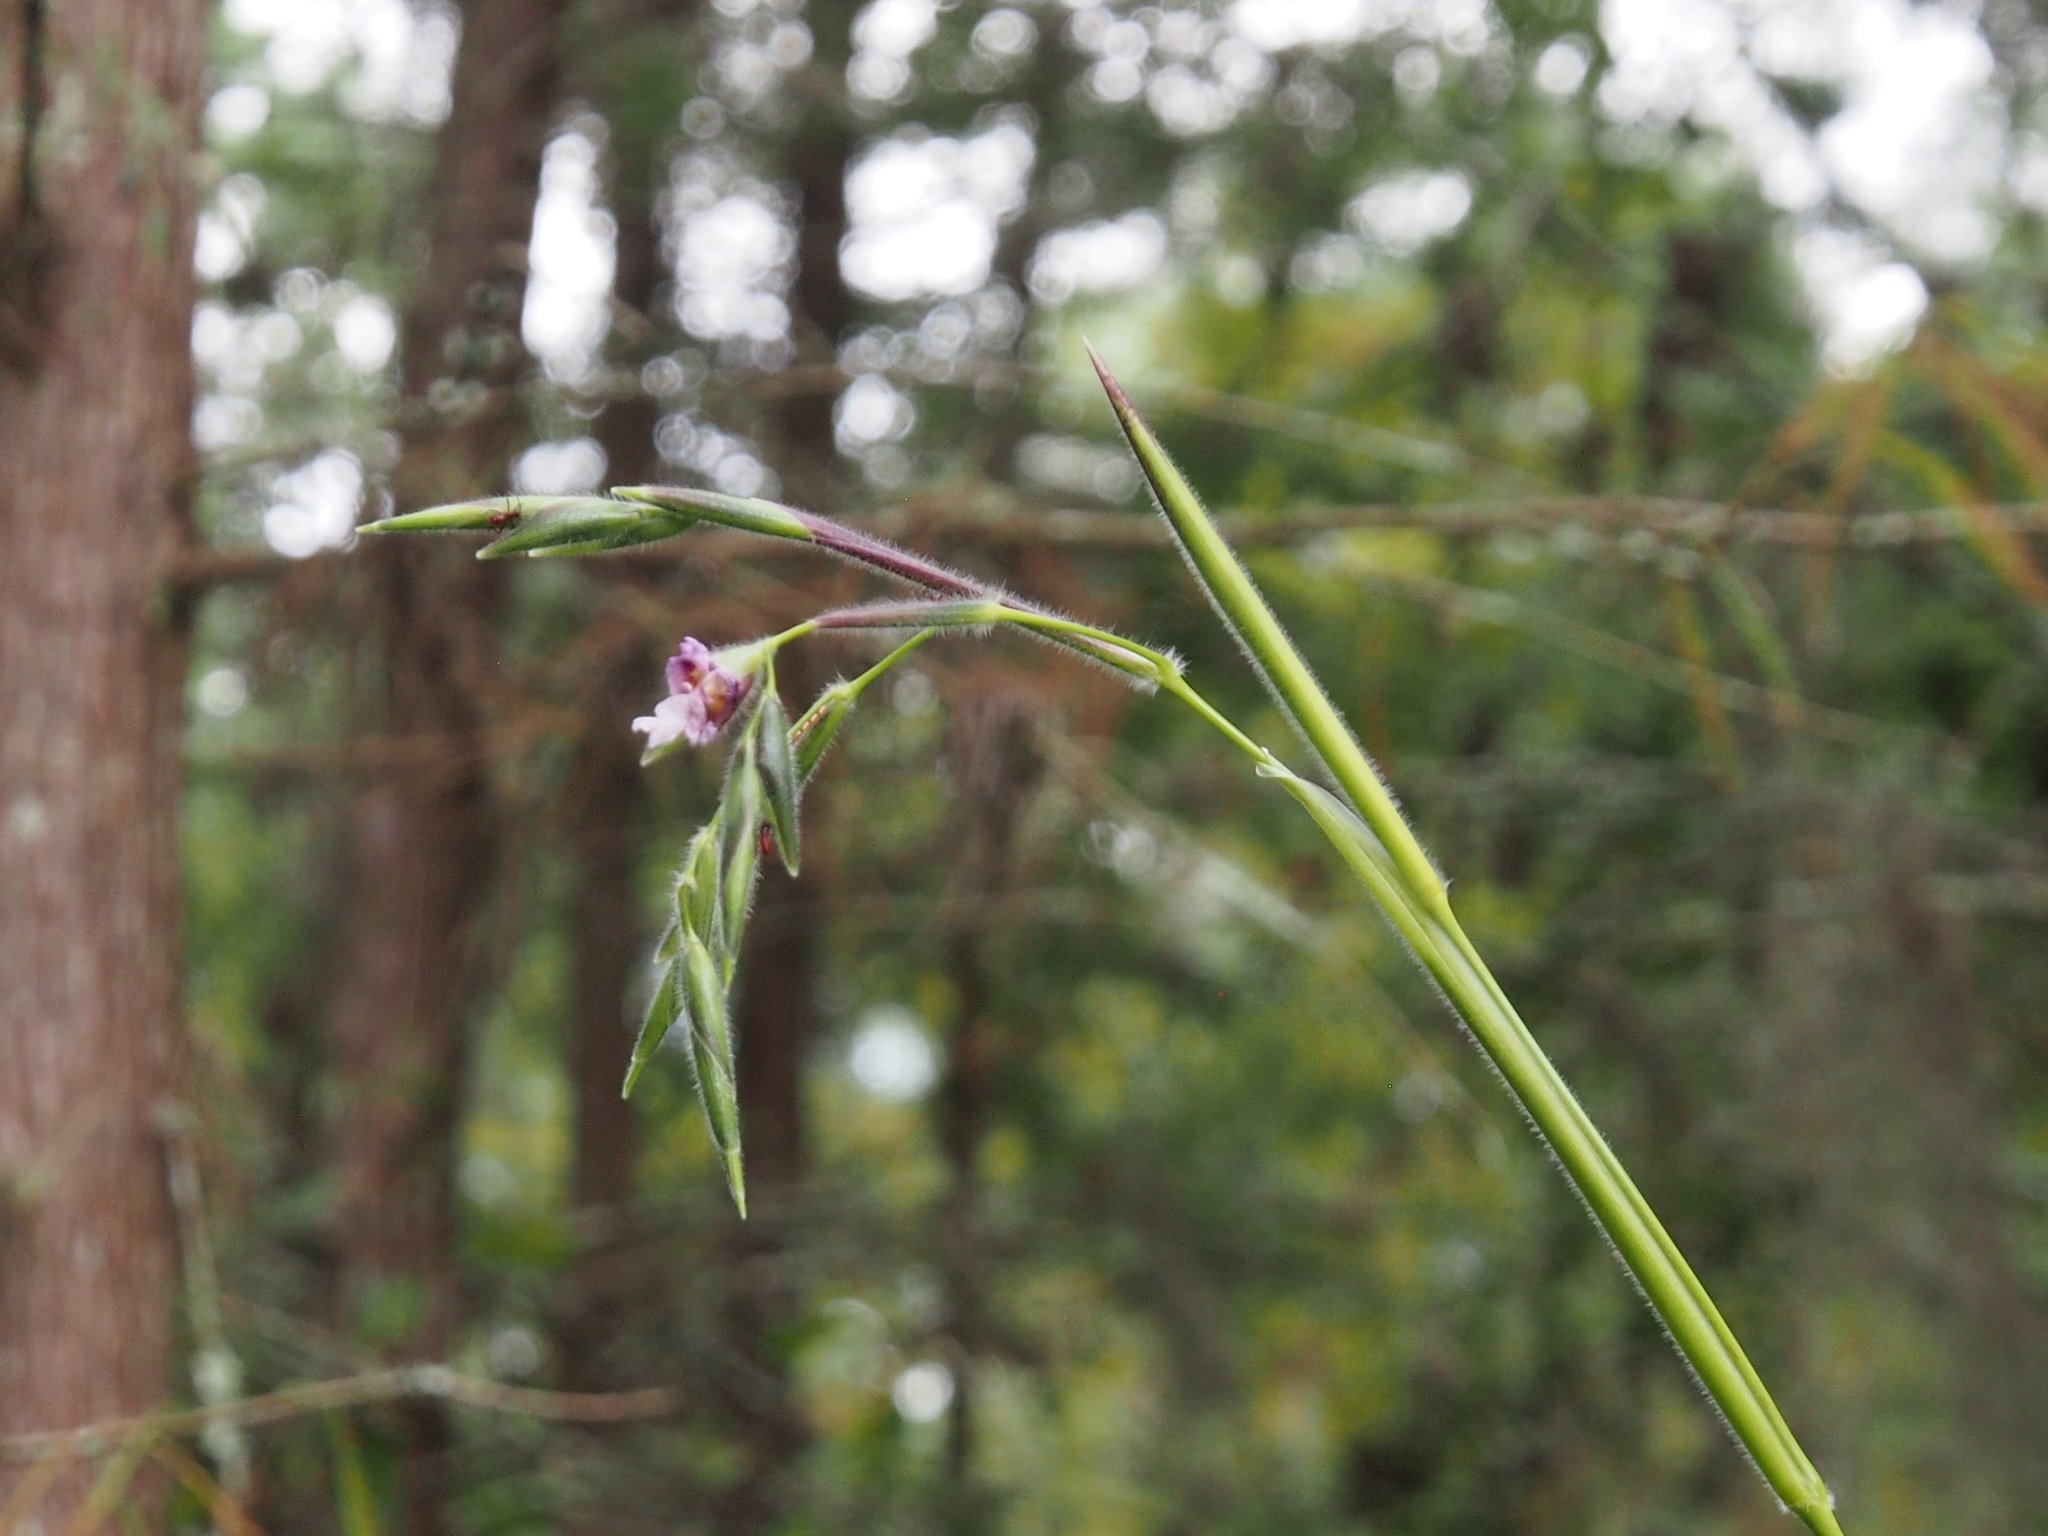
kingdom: Plantae
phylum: Tracheophyta
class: Liliopsida
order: Zingiberales
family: Marantaceae
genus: Thalia
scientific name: Thalia geniculata
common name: Arrowroot
